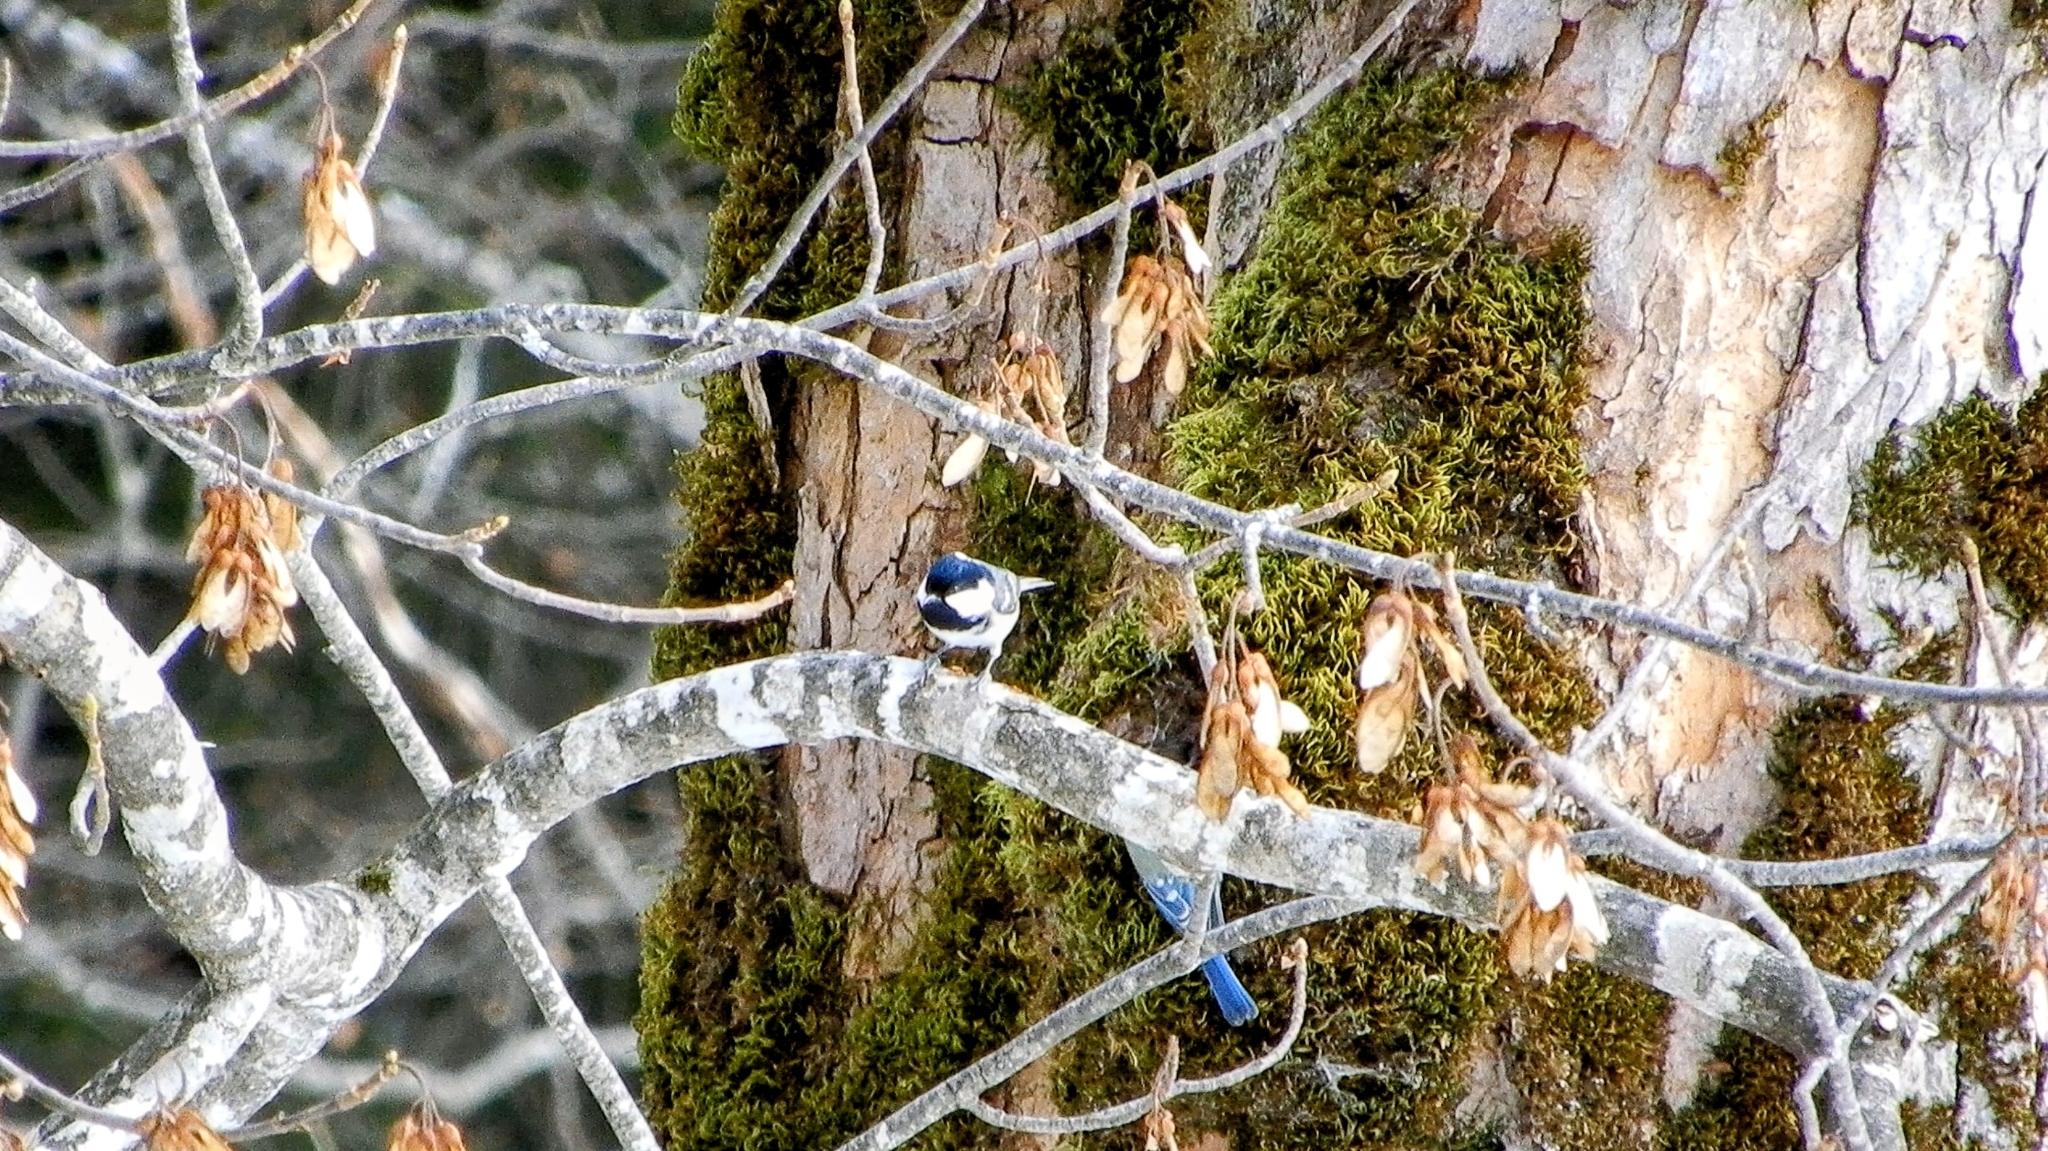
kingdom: Animalia
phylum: Chordata
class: Aves
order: Passeriformes
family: Paridae
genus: Periparus
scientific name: Periparus ater
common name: Coal tit
